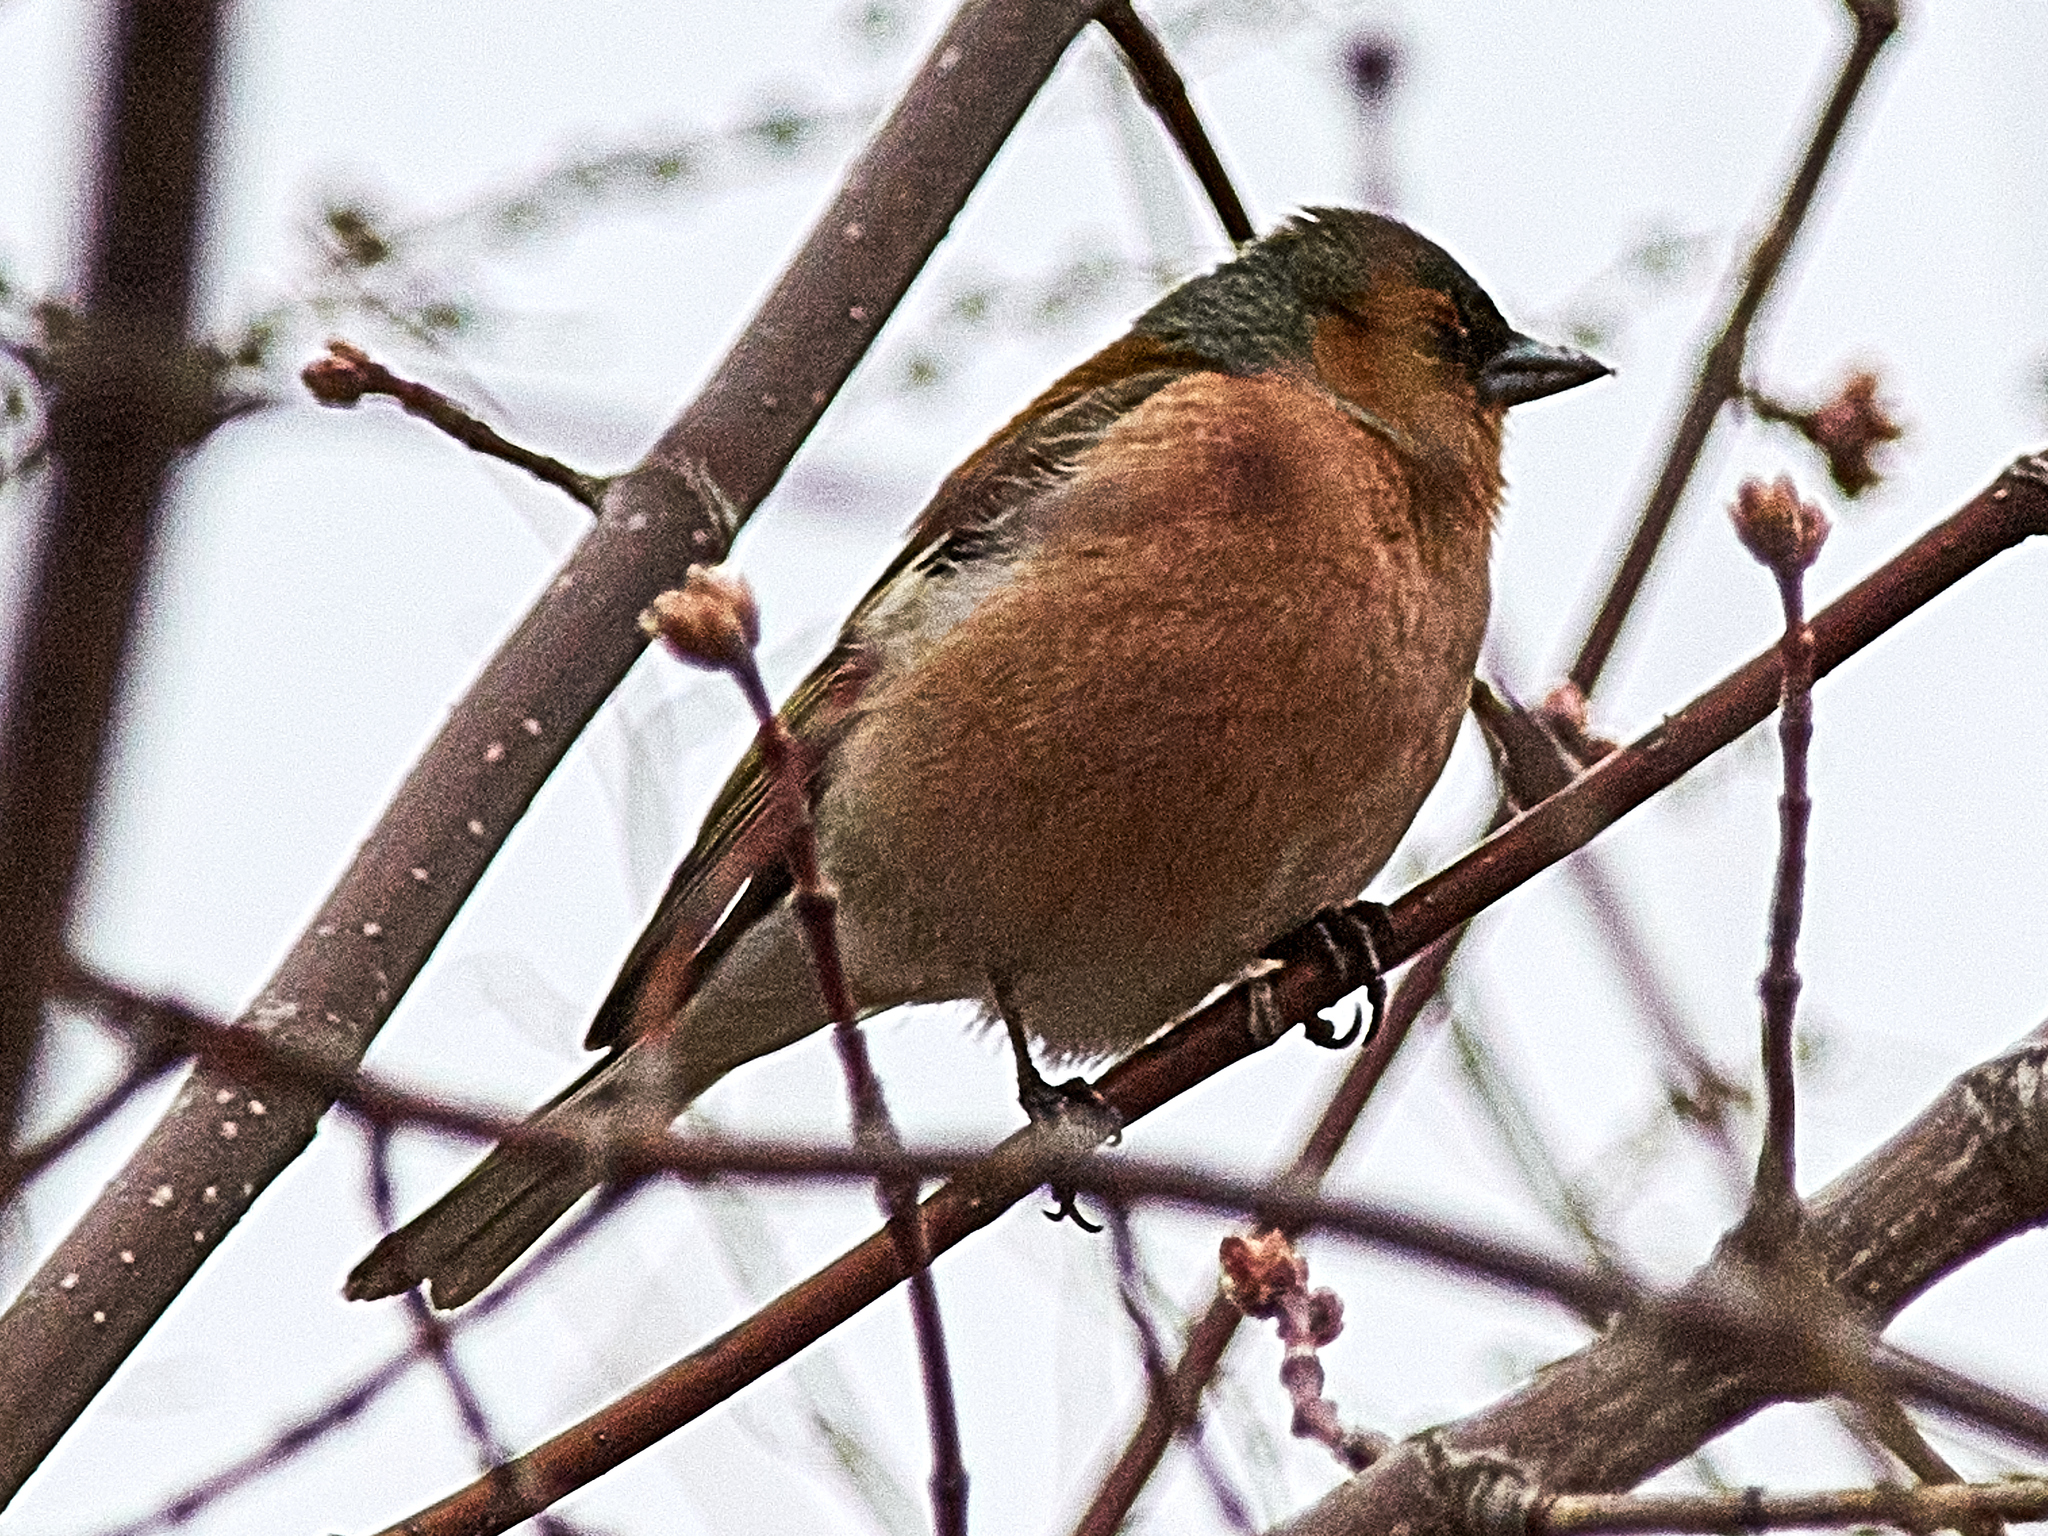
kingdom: Animalia
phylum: Chordata
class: Aves
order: Passeriformes
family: Fringillidae
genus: Fringilla
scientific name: Fringilla coelebs
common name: Common chaffinch
